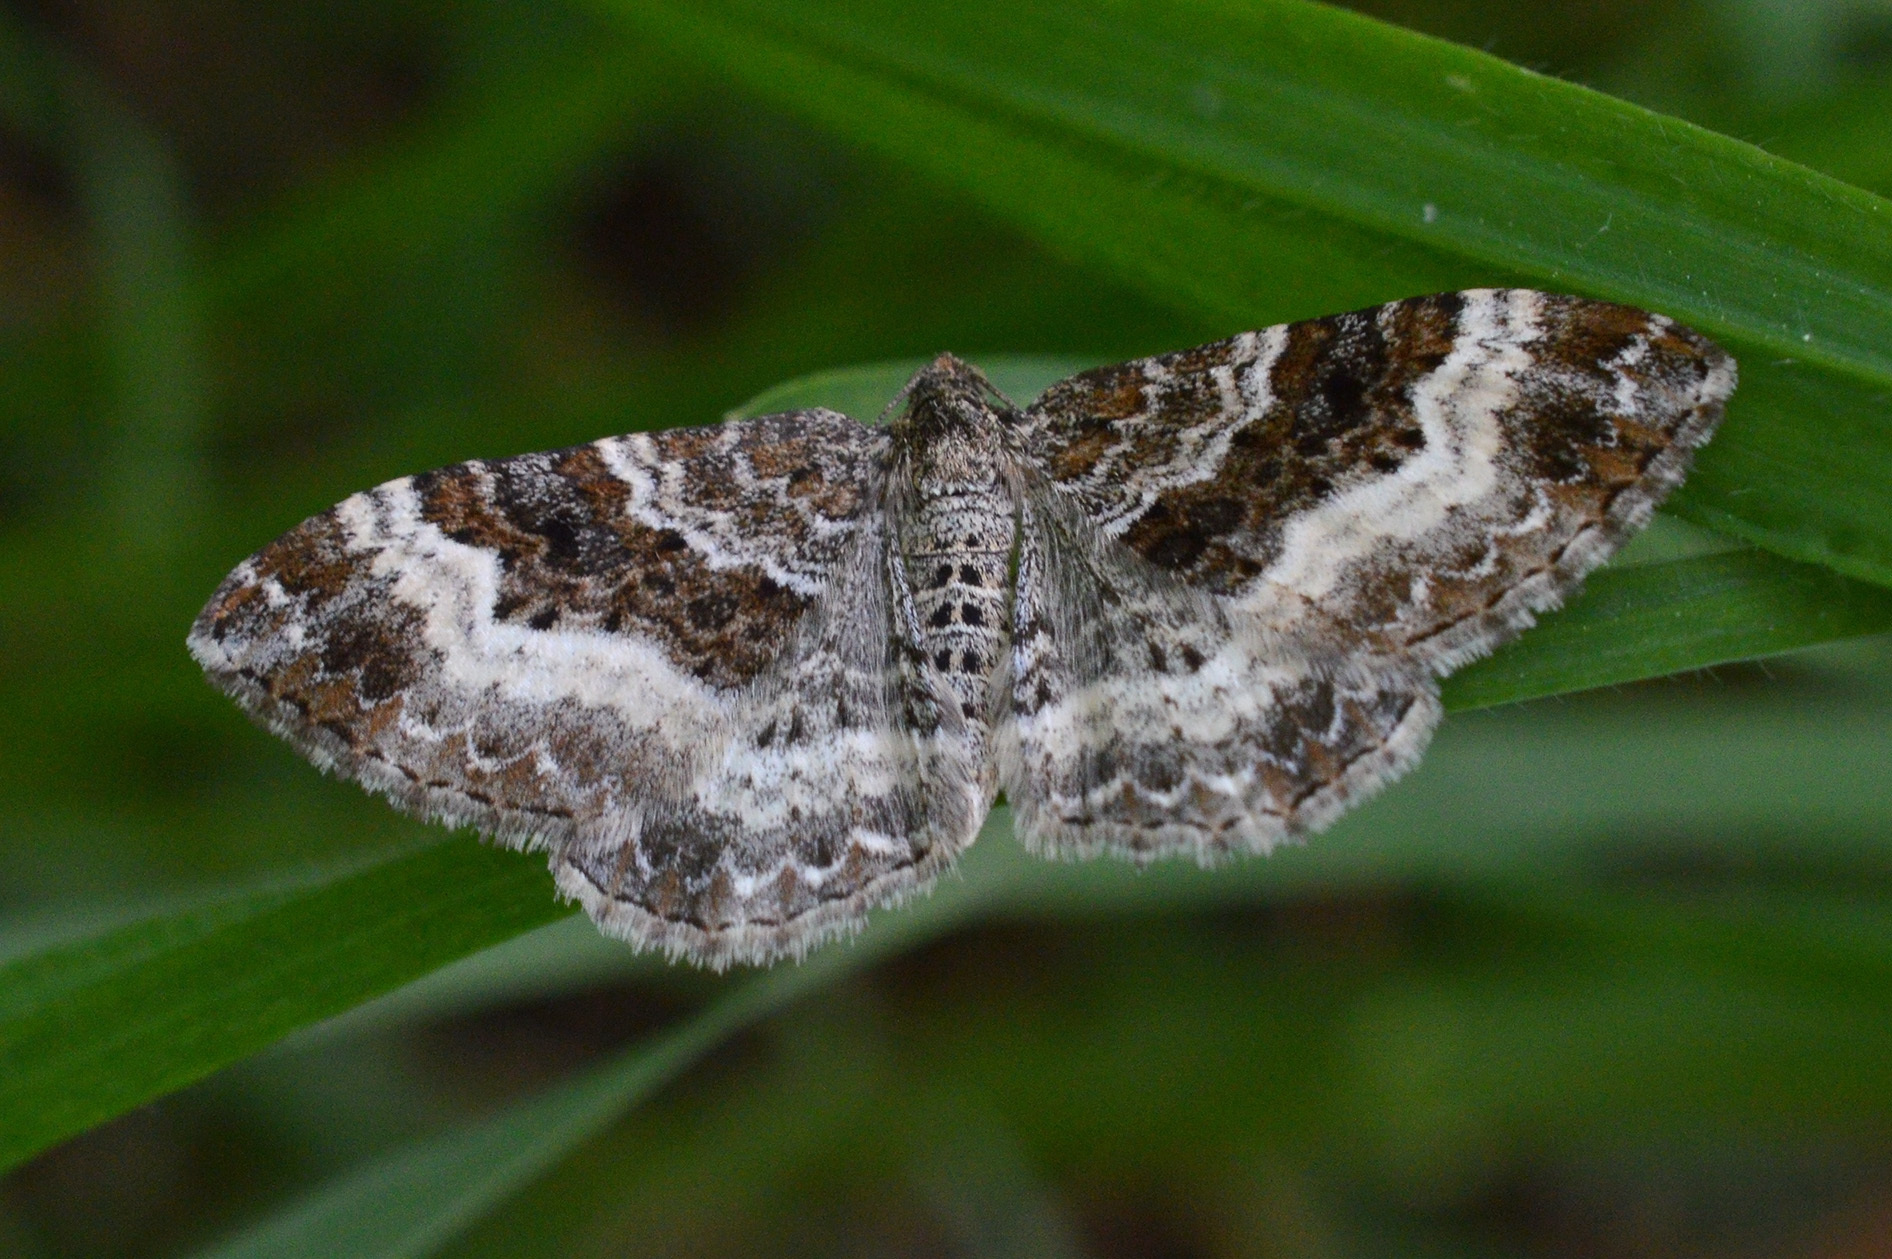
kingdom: Animalia
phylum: Arthropoda
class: Insecta
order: Lepidoptera
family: Geometridae
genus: Epirrhoe
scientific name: Epirrhoe alternata
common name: Common carpet
